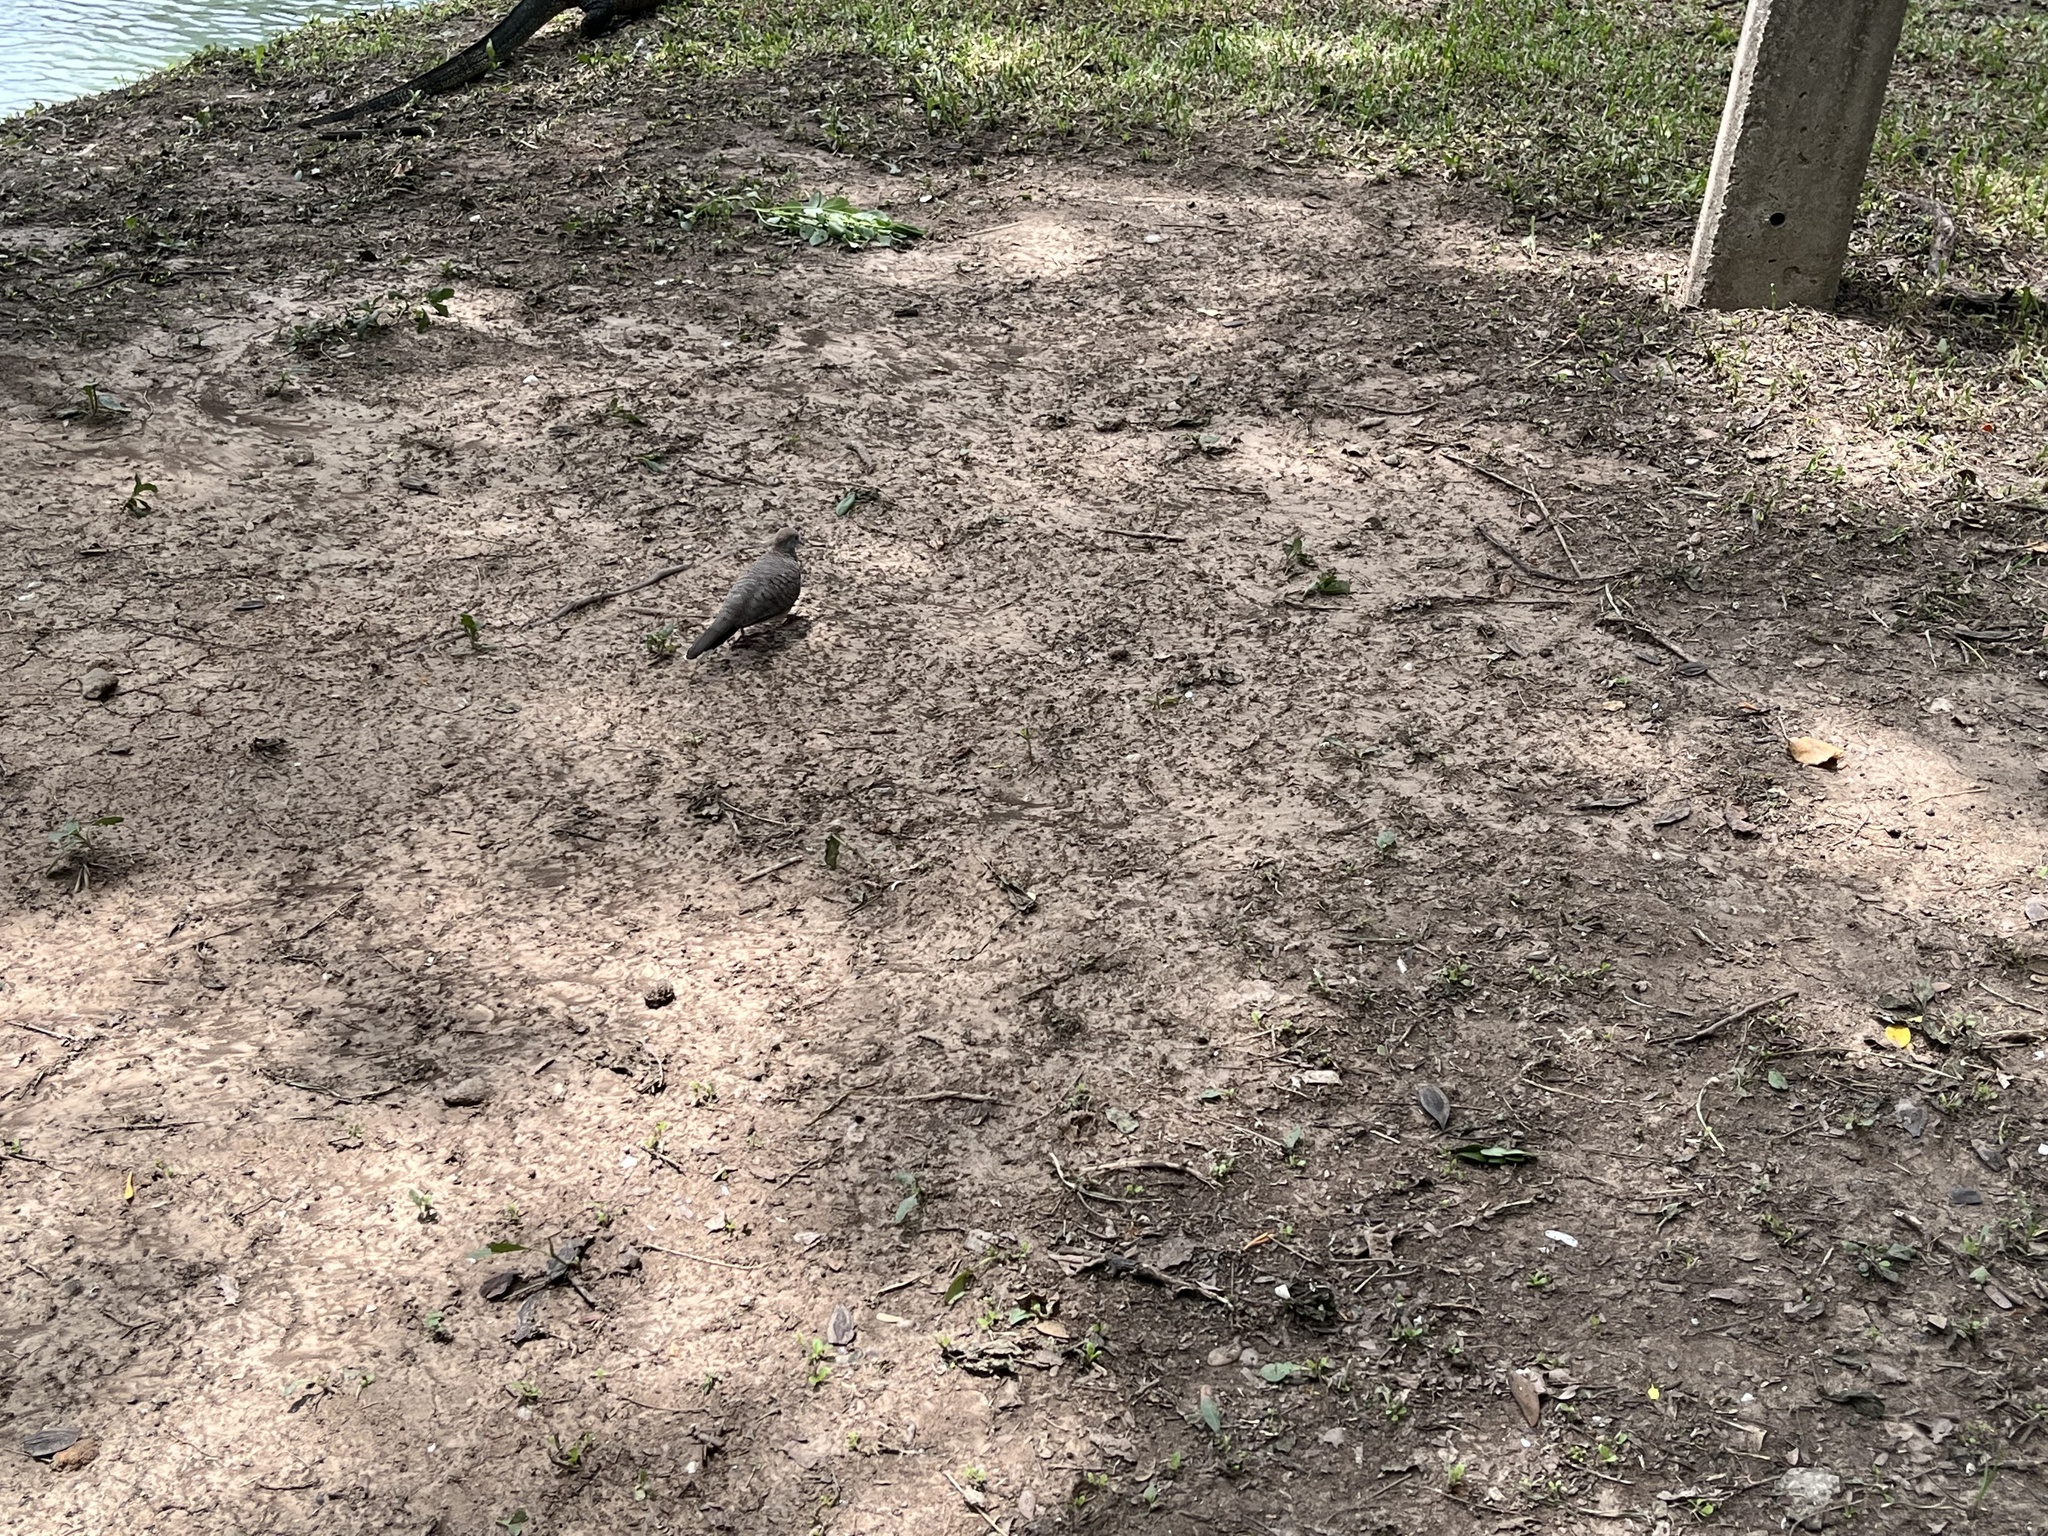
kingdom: Animalia
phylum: Chordata
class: Aves
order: Columbiformes
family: Columbidae
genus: Geopelia
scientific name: Geopelia striata
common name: Zebra dove
